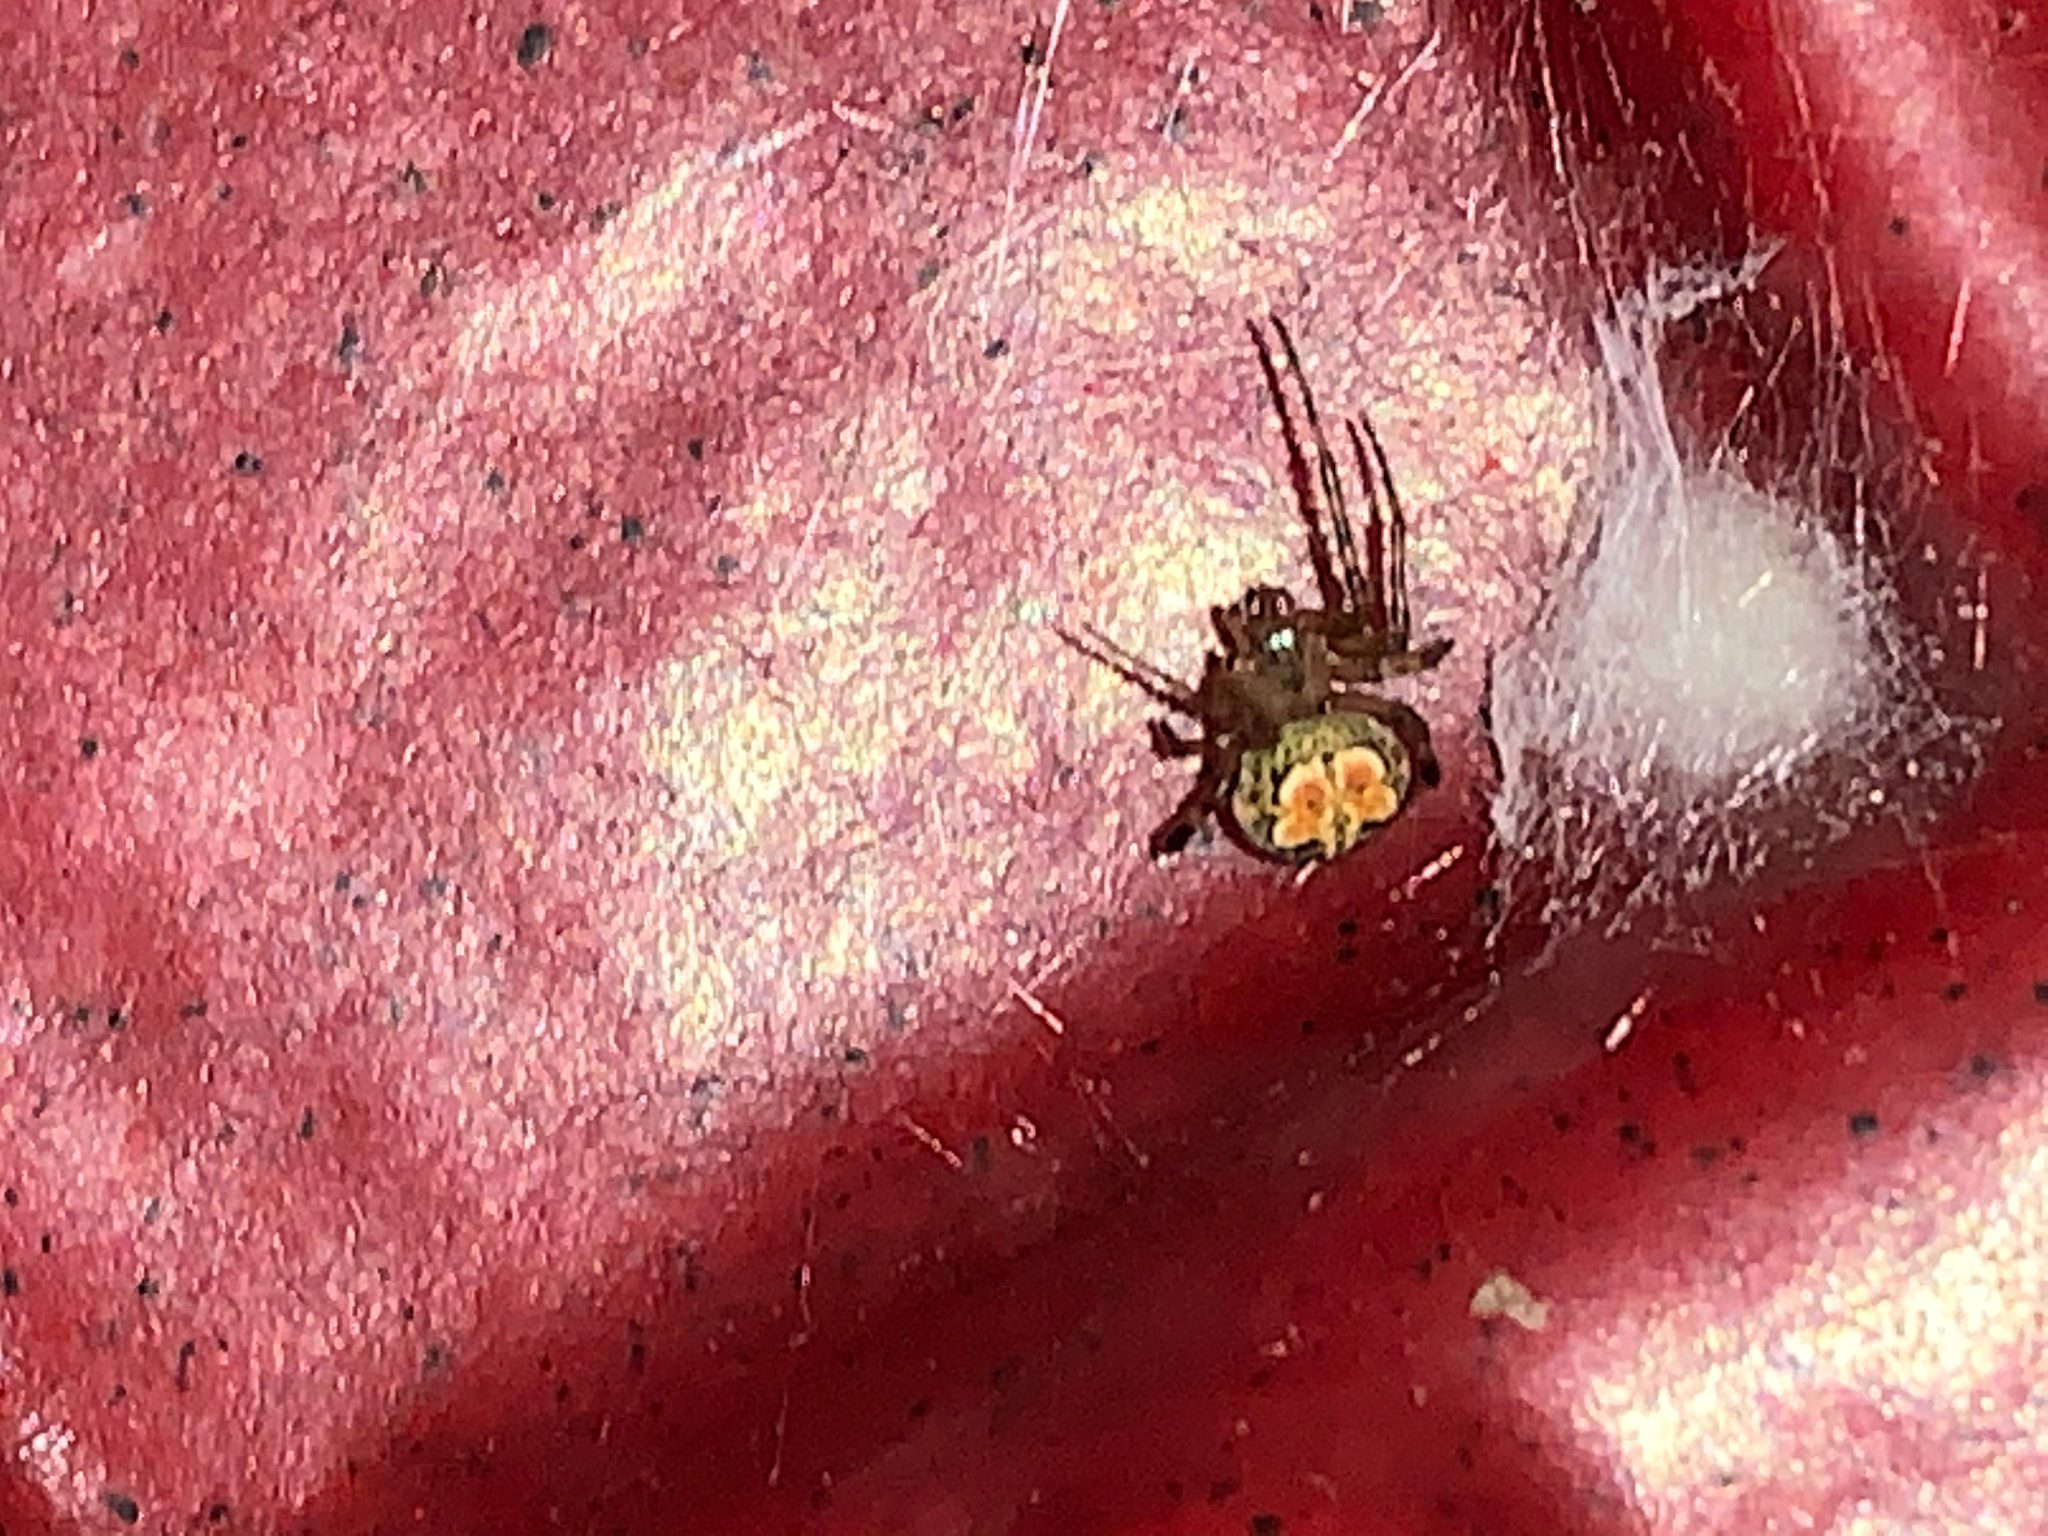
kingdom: Animalia
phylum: Arthropoda
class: Arachnida
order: Araneae
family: Araneidae
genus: Araneus
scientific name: Araneus pegnia
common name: Orb weavers
